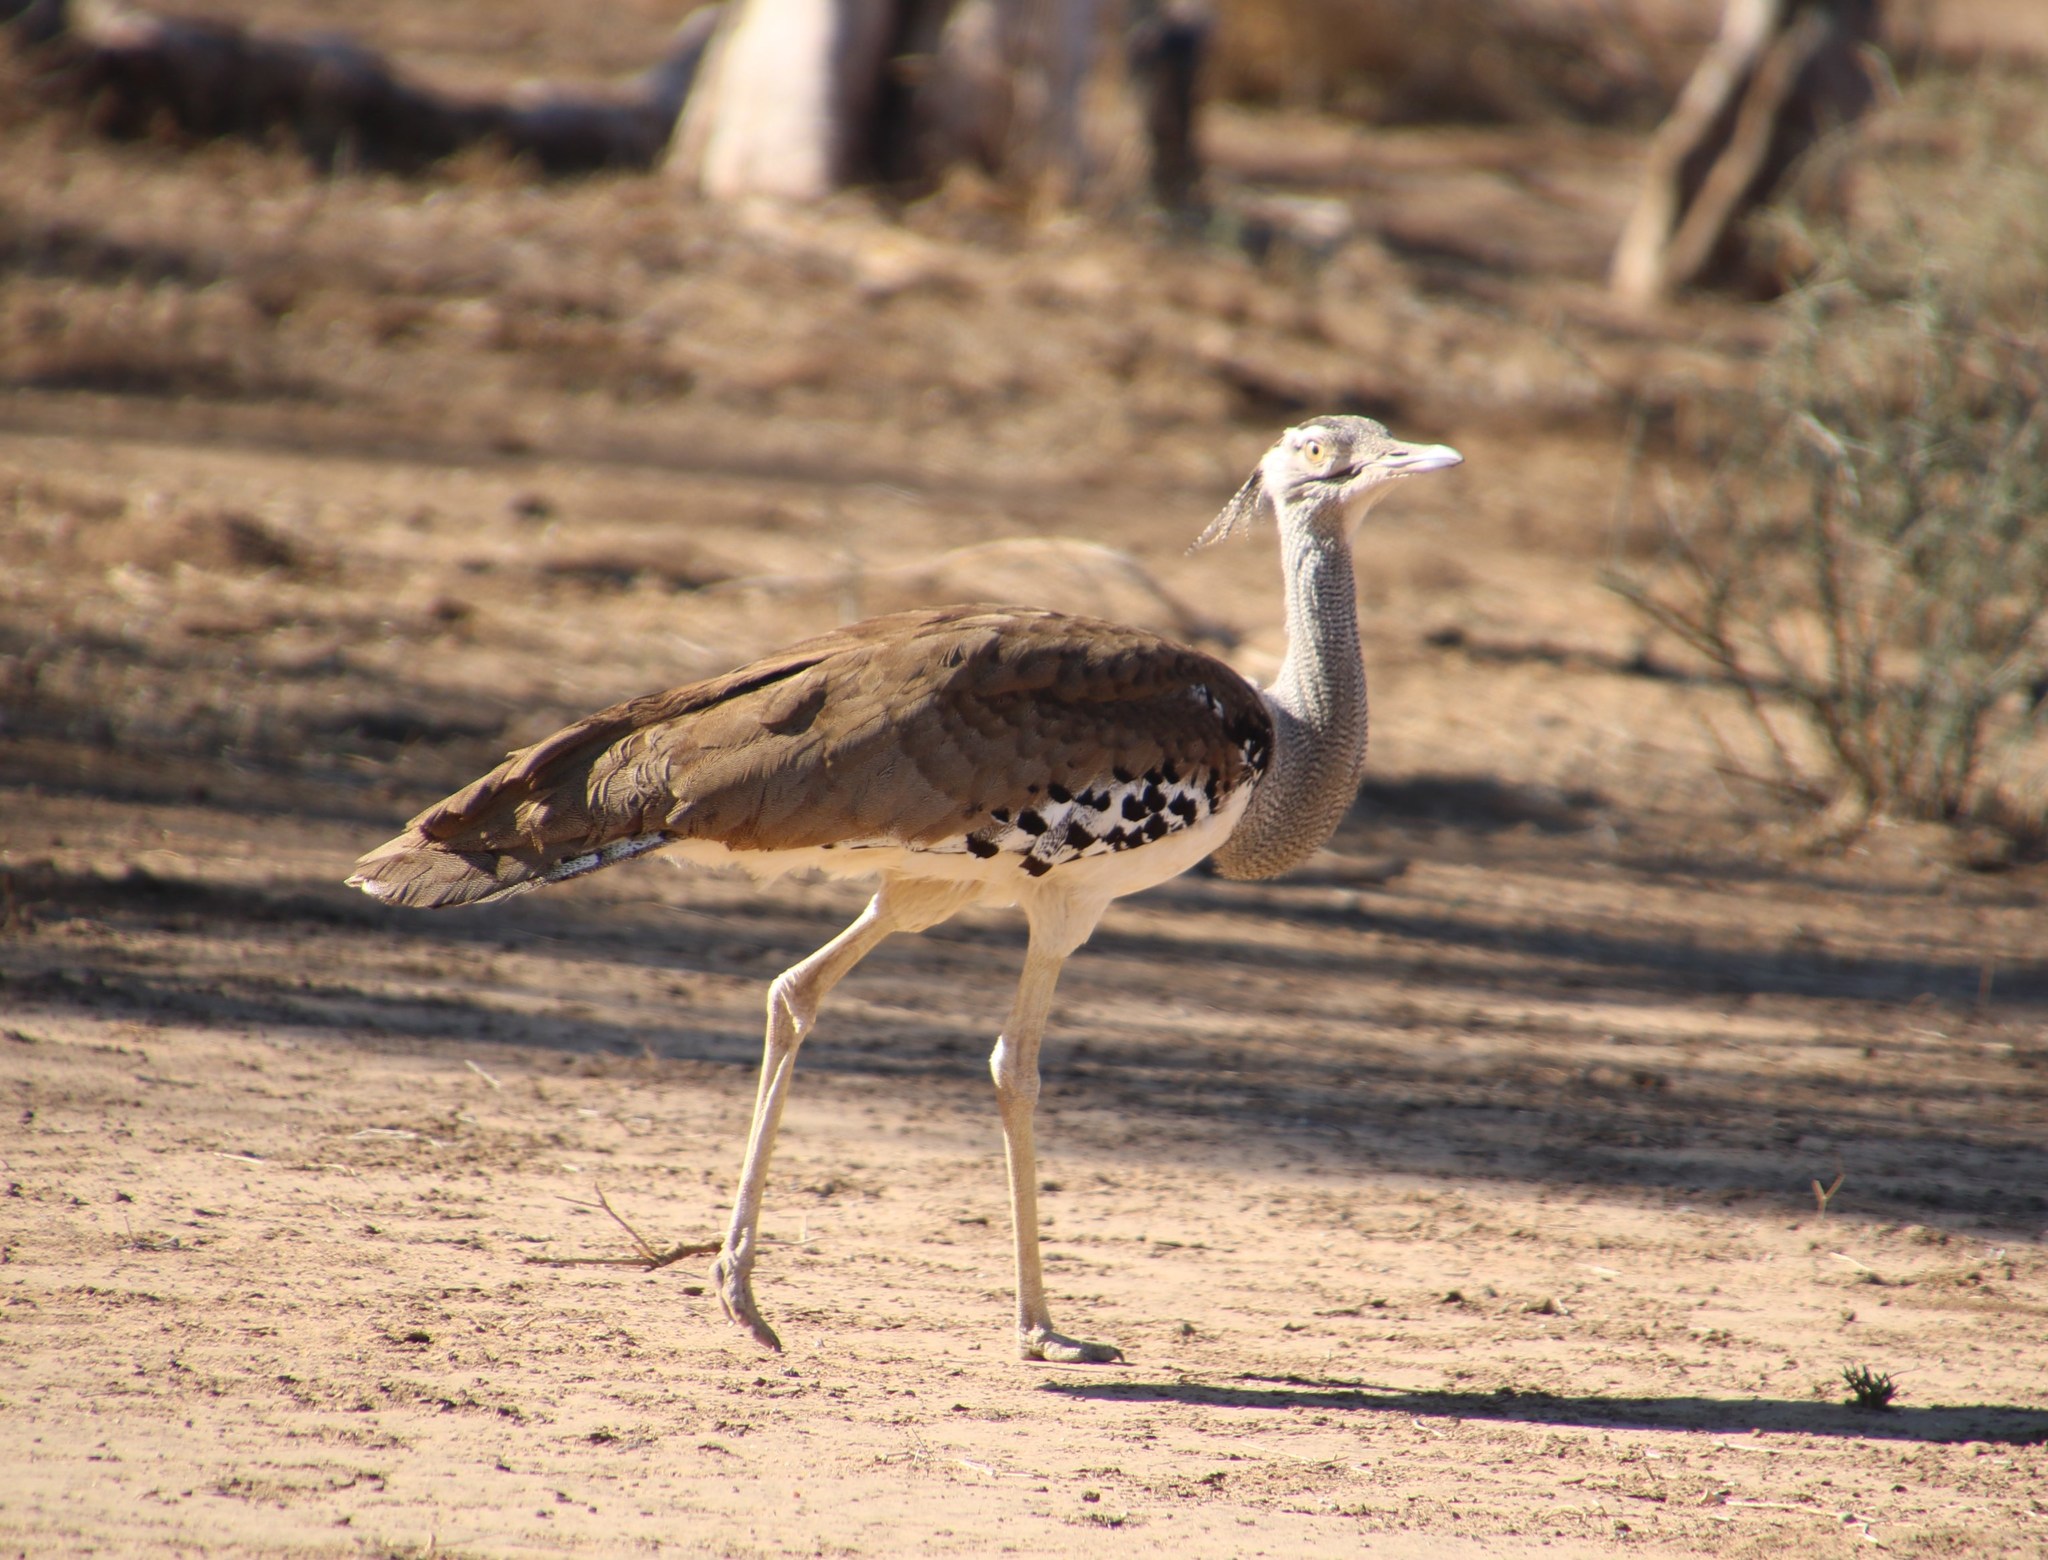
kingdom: Animalia
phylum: Chordata
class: Aves
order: Otidiformes
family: Otididae
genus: Ardeotis
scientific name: Ardeotis kori
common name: Kori bustard
